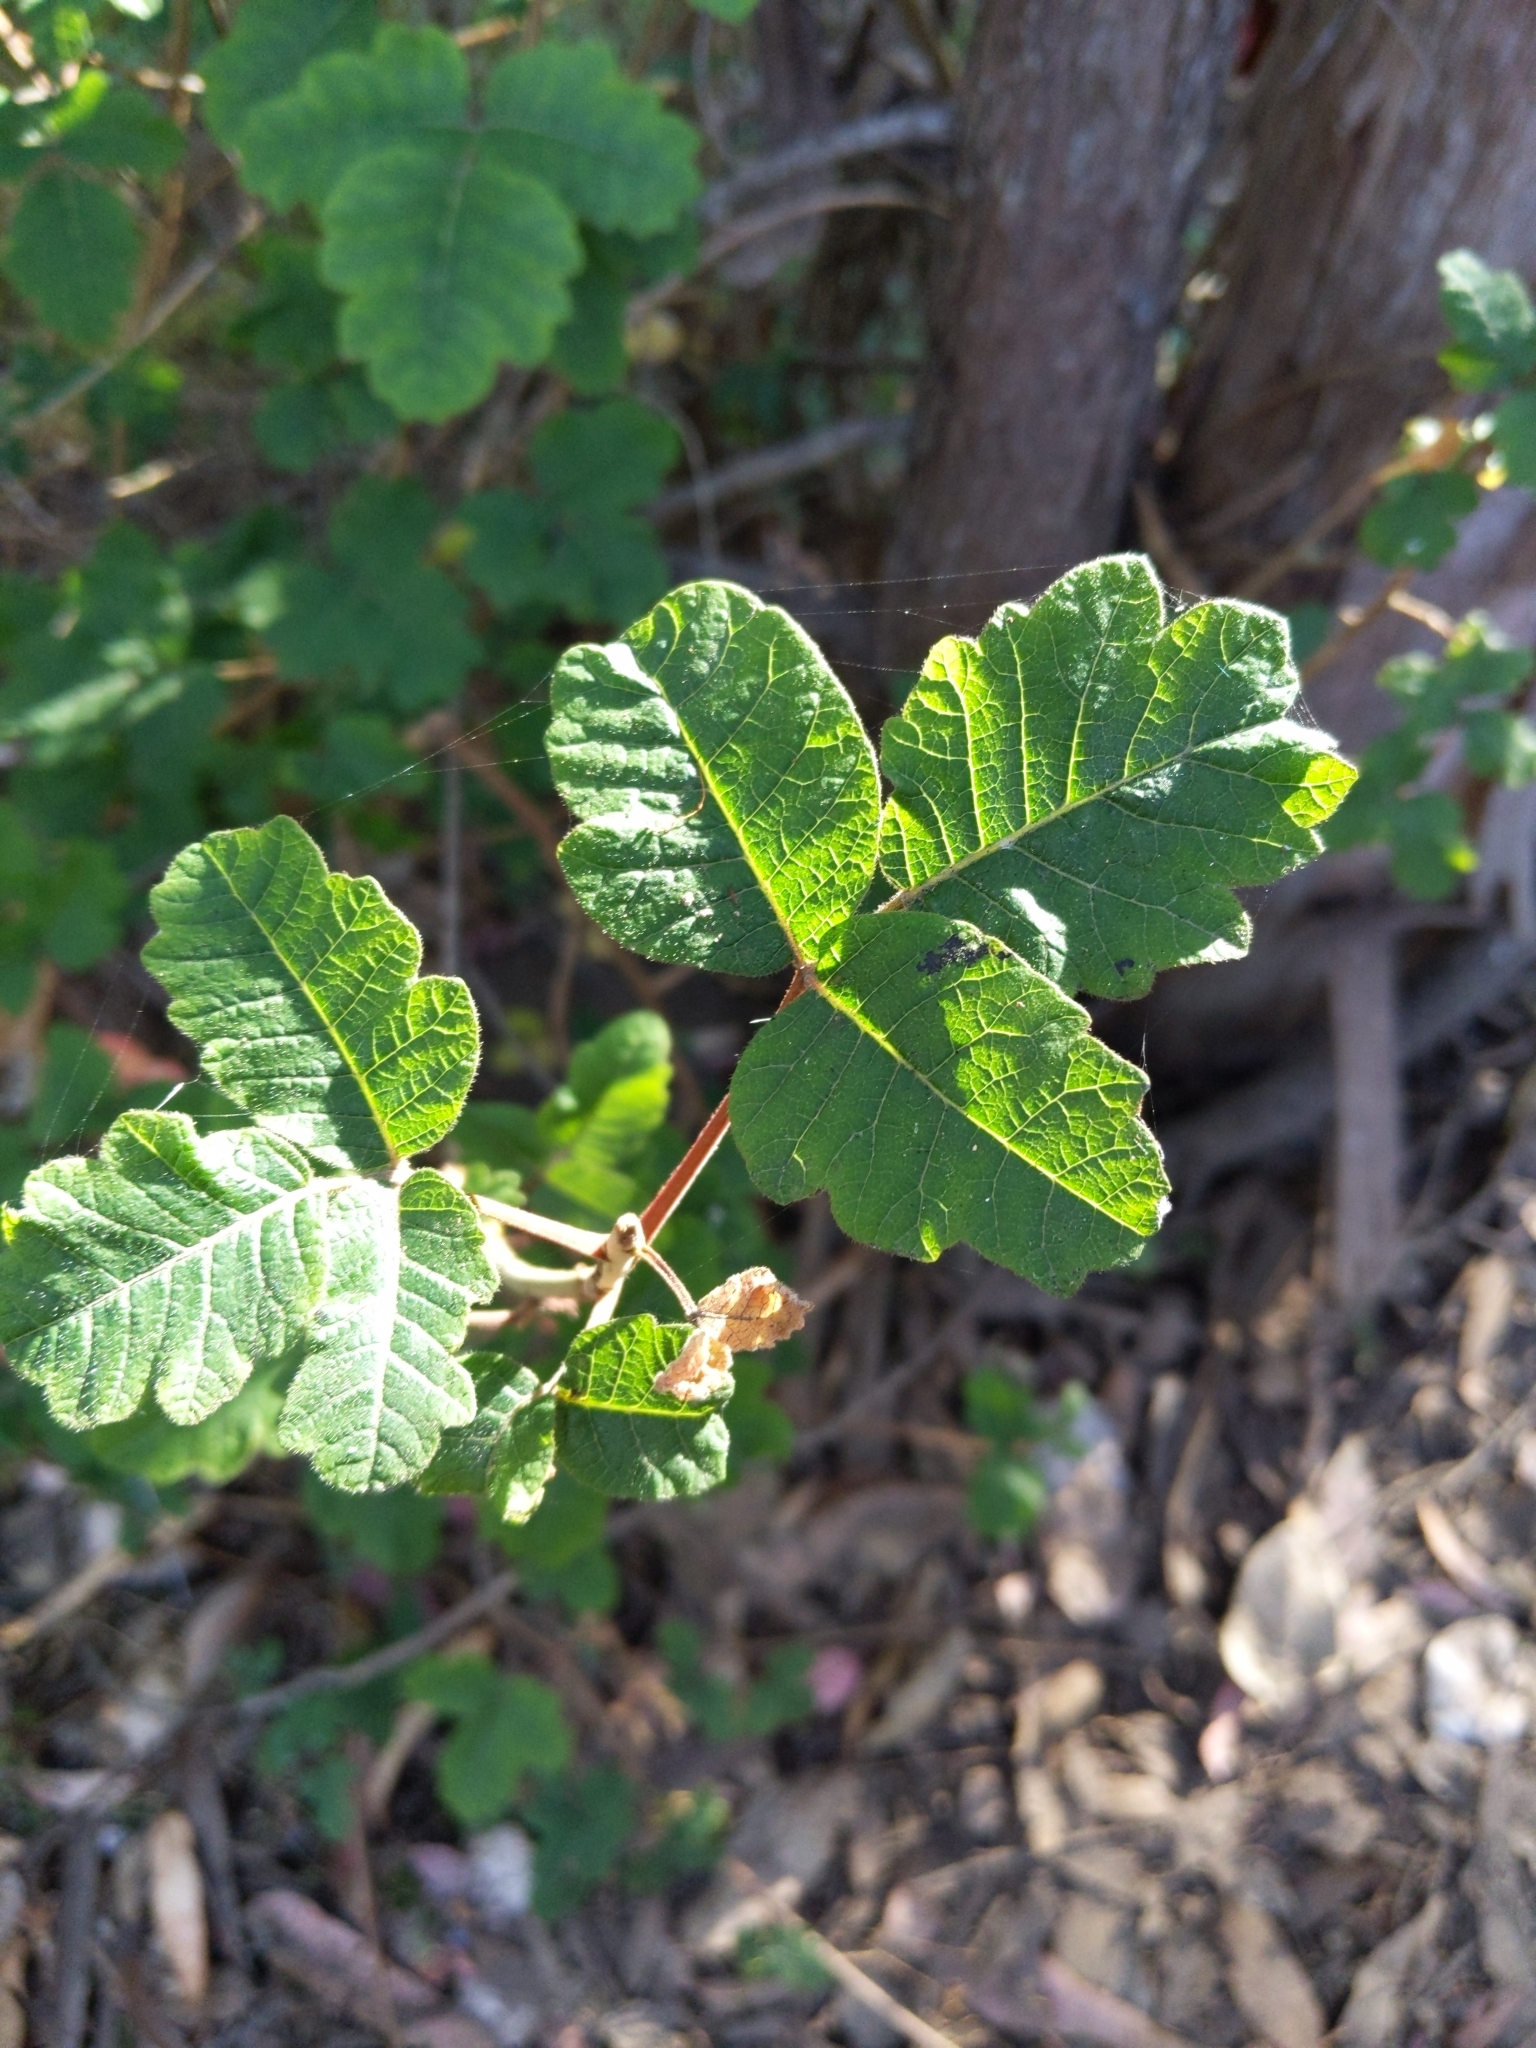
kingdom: Plantae
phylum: Tracheophyta
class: Magnoliopsida
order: Sapindales
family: Anacardiaceae
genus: Toxicodendron
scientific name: Toxicodendron diversilobum
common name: Pacific poison-oak
